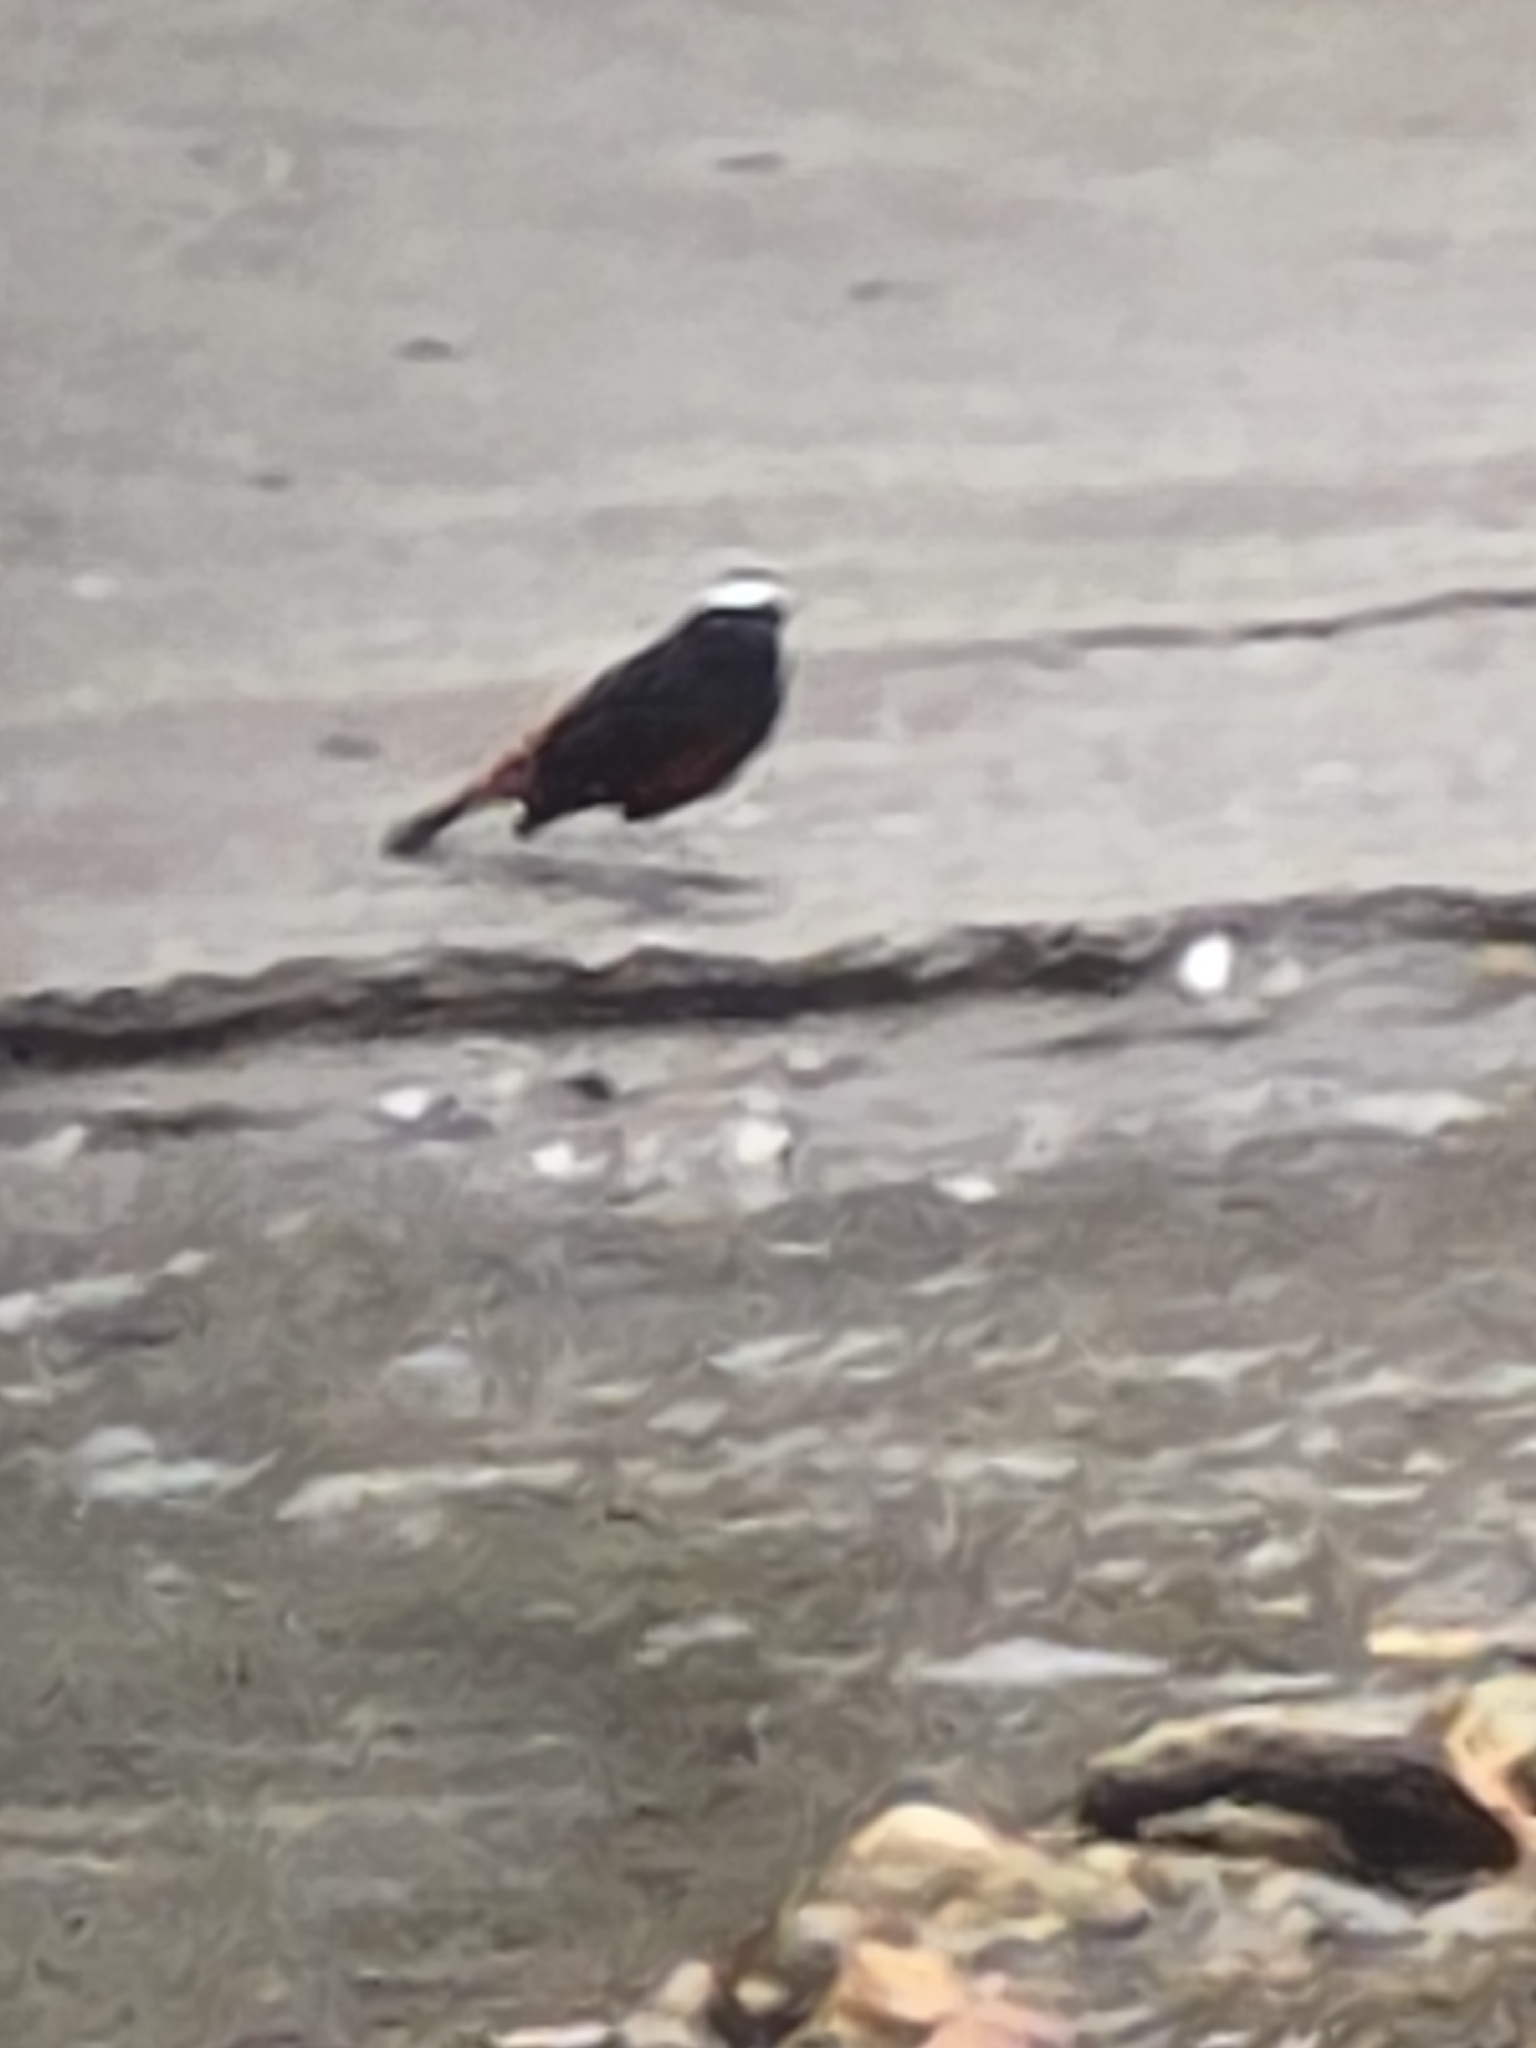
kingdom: Animalia
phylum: Chordata
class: Aves
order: Passeriformes
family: Muscicapidae
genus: Chaimarrornis
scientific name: Chaimarrornis leucocephalus
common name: White-capped redstart
